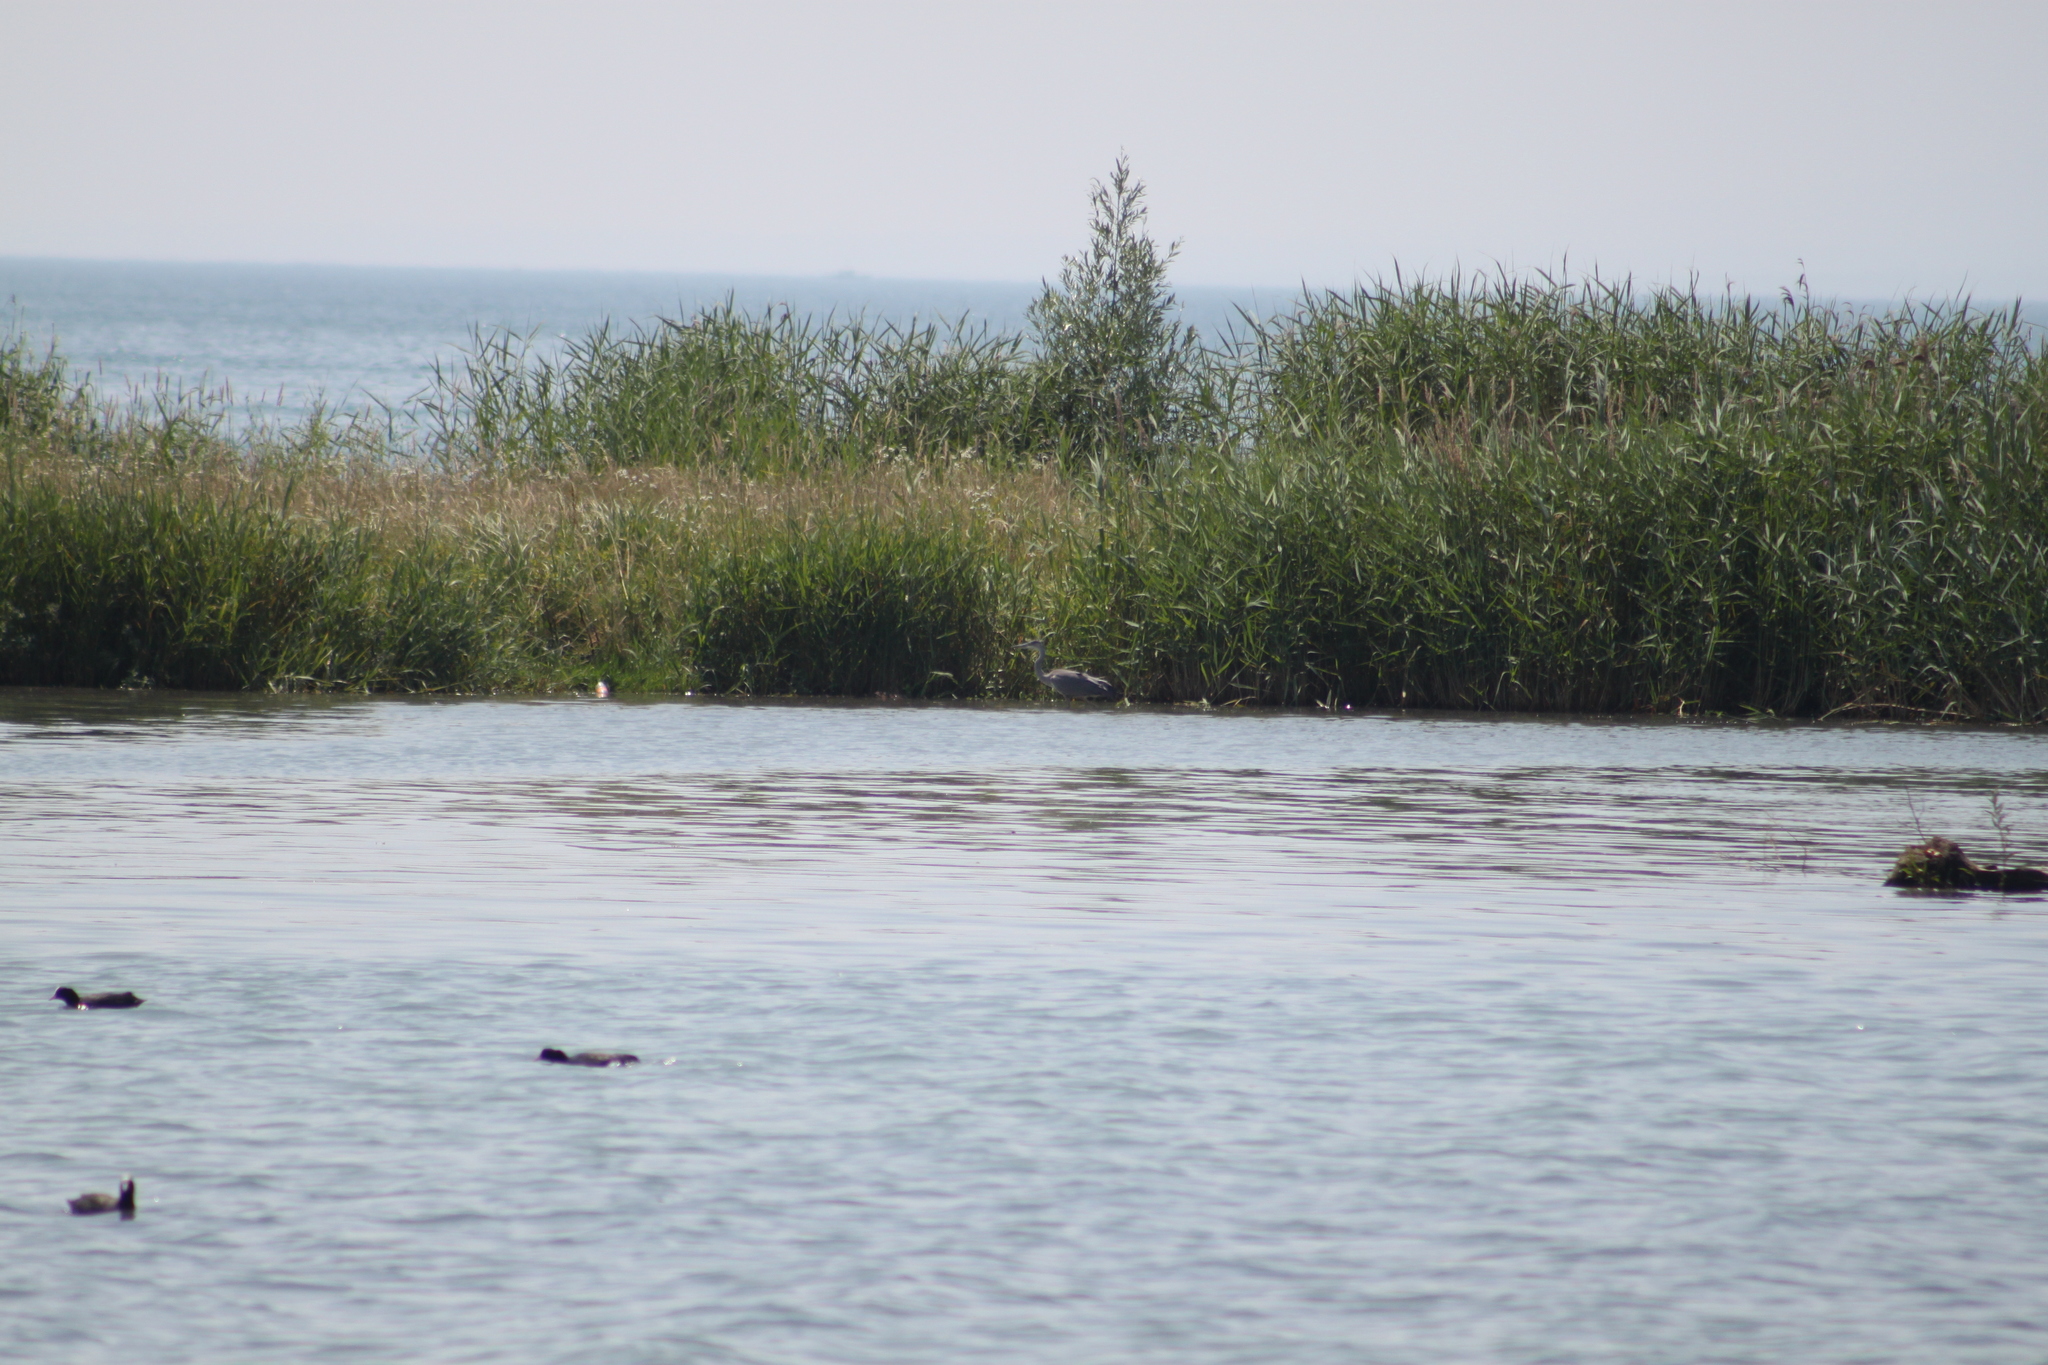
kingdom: Animalia
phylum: Chordata
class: Aves
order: Pelecaniformes
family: Ardeidae
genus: Ardea
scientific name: Ardea cinerea
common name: Grey heron
